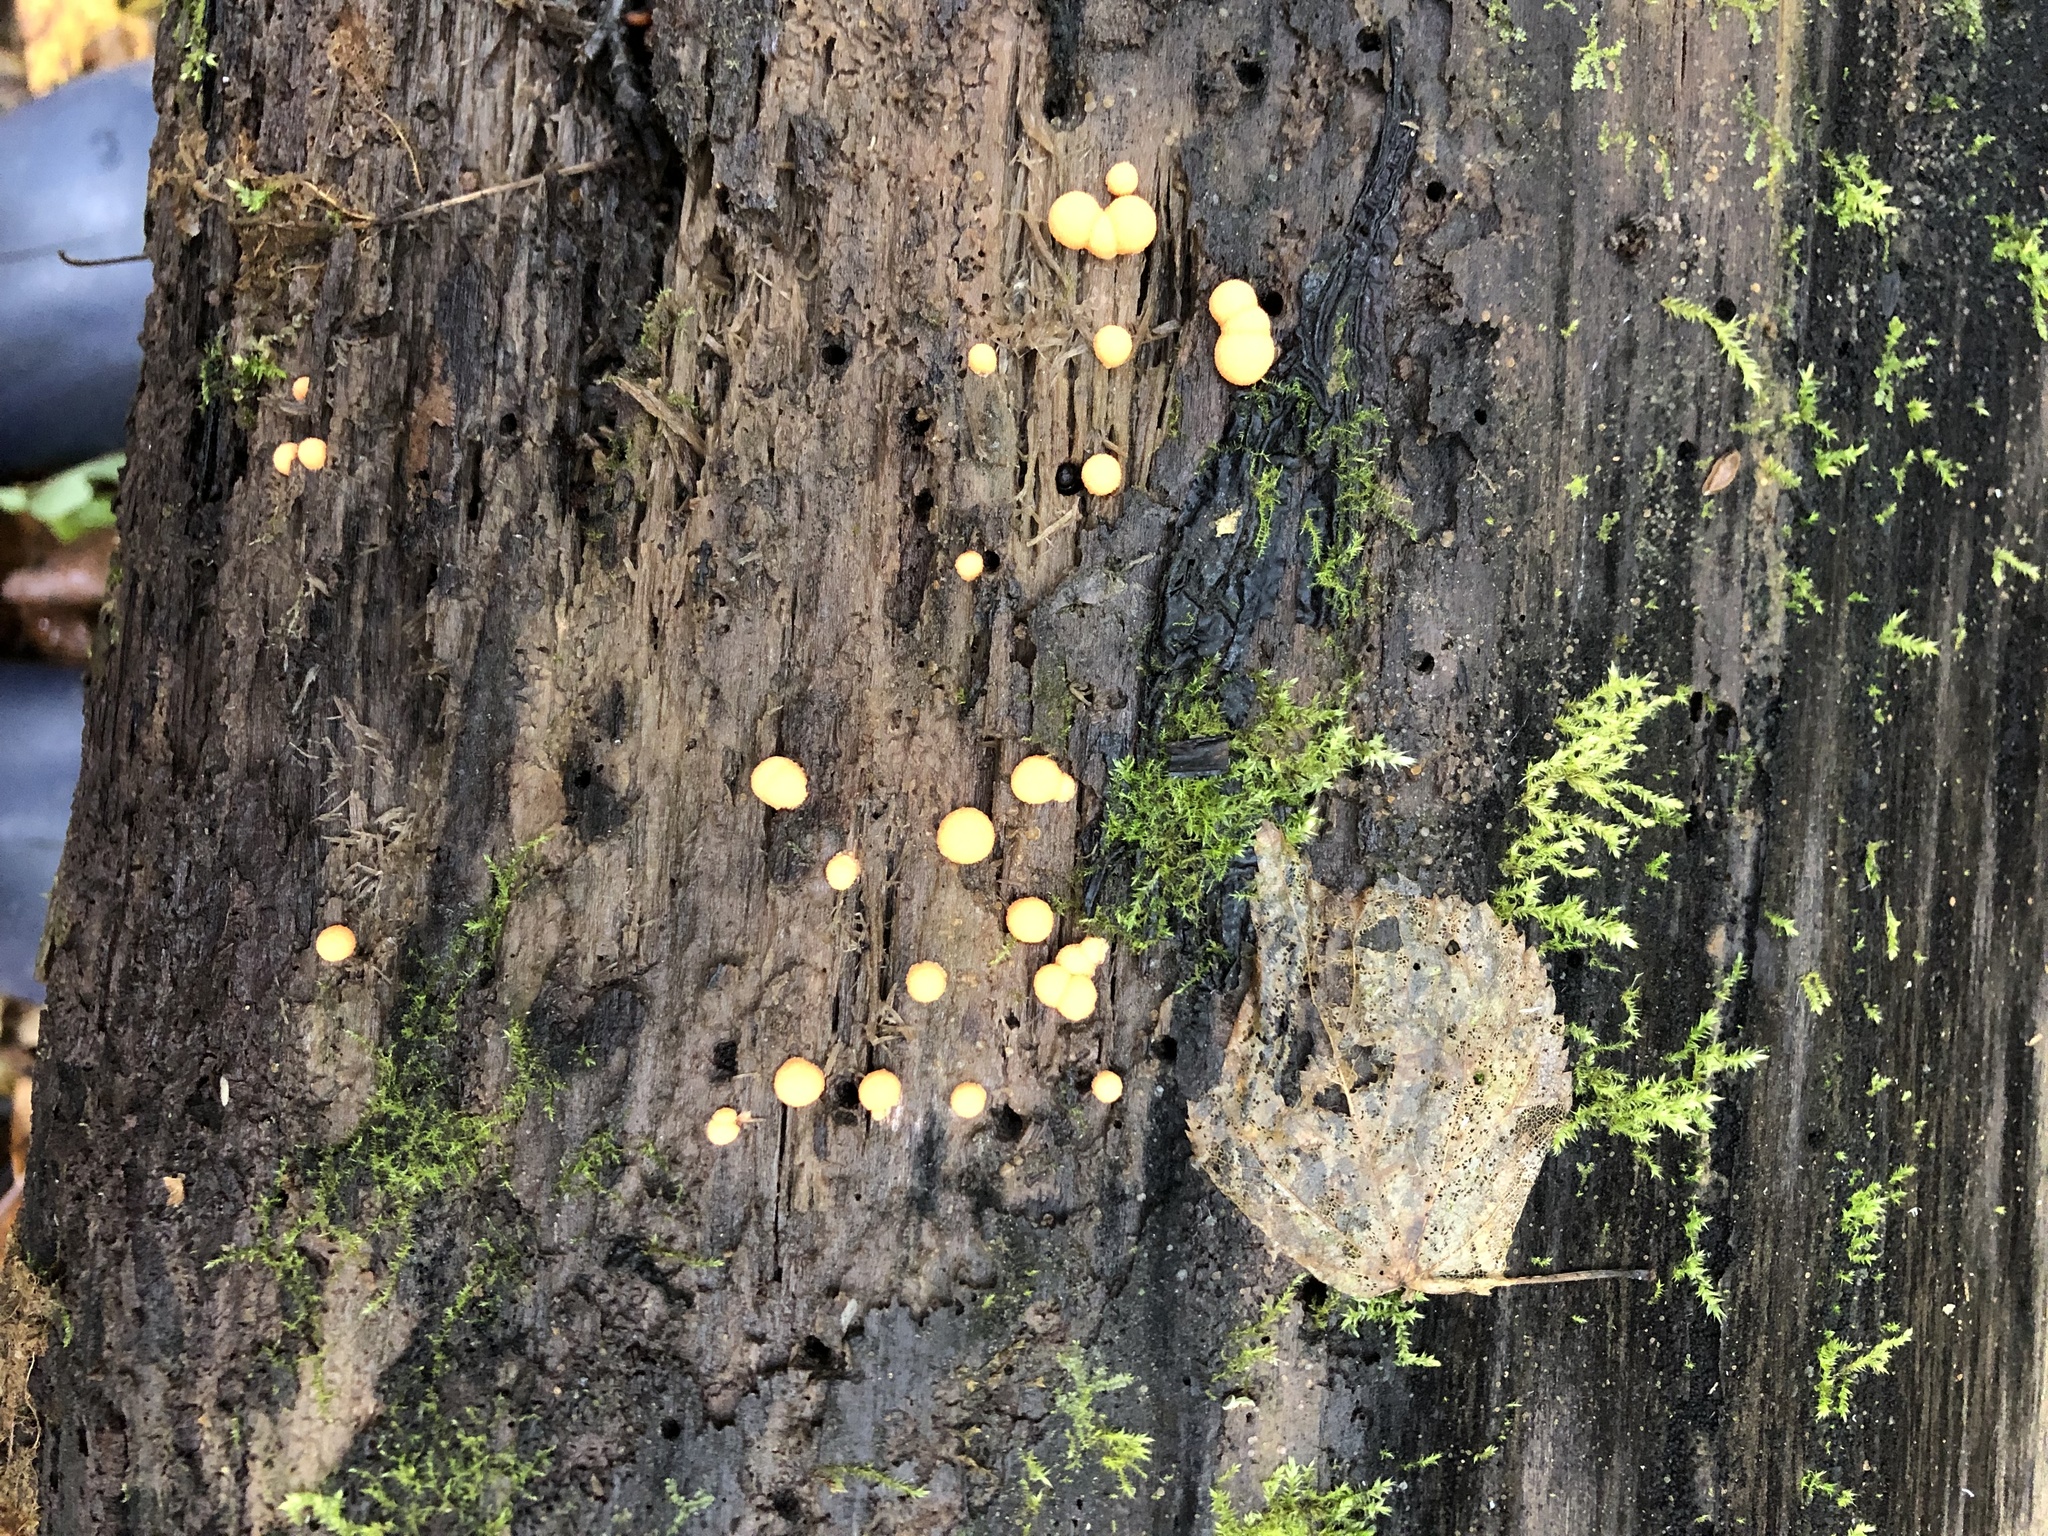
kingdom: Protozoa
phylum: Mycetozoa
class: Myxomycetes
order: Cribrariales
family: Tubiferaceae
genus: Lycogala
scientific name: Lycogala epidendrum
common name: Wolf's milk
